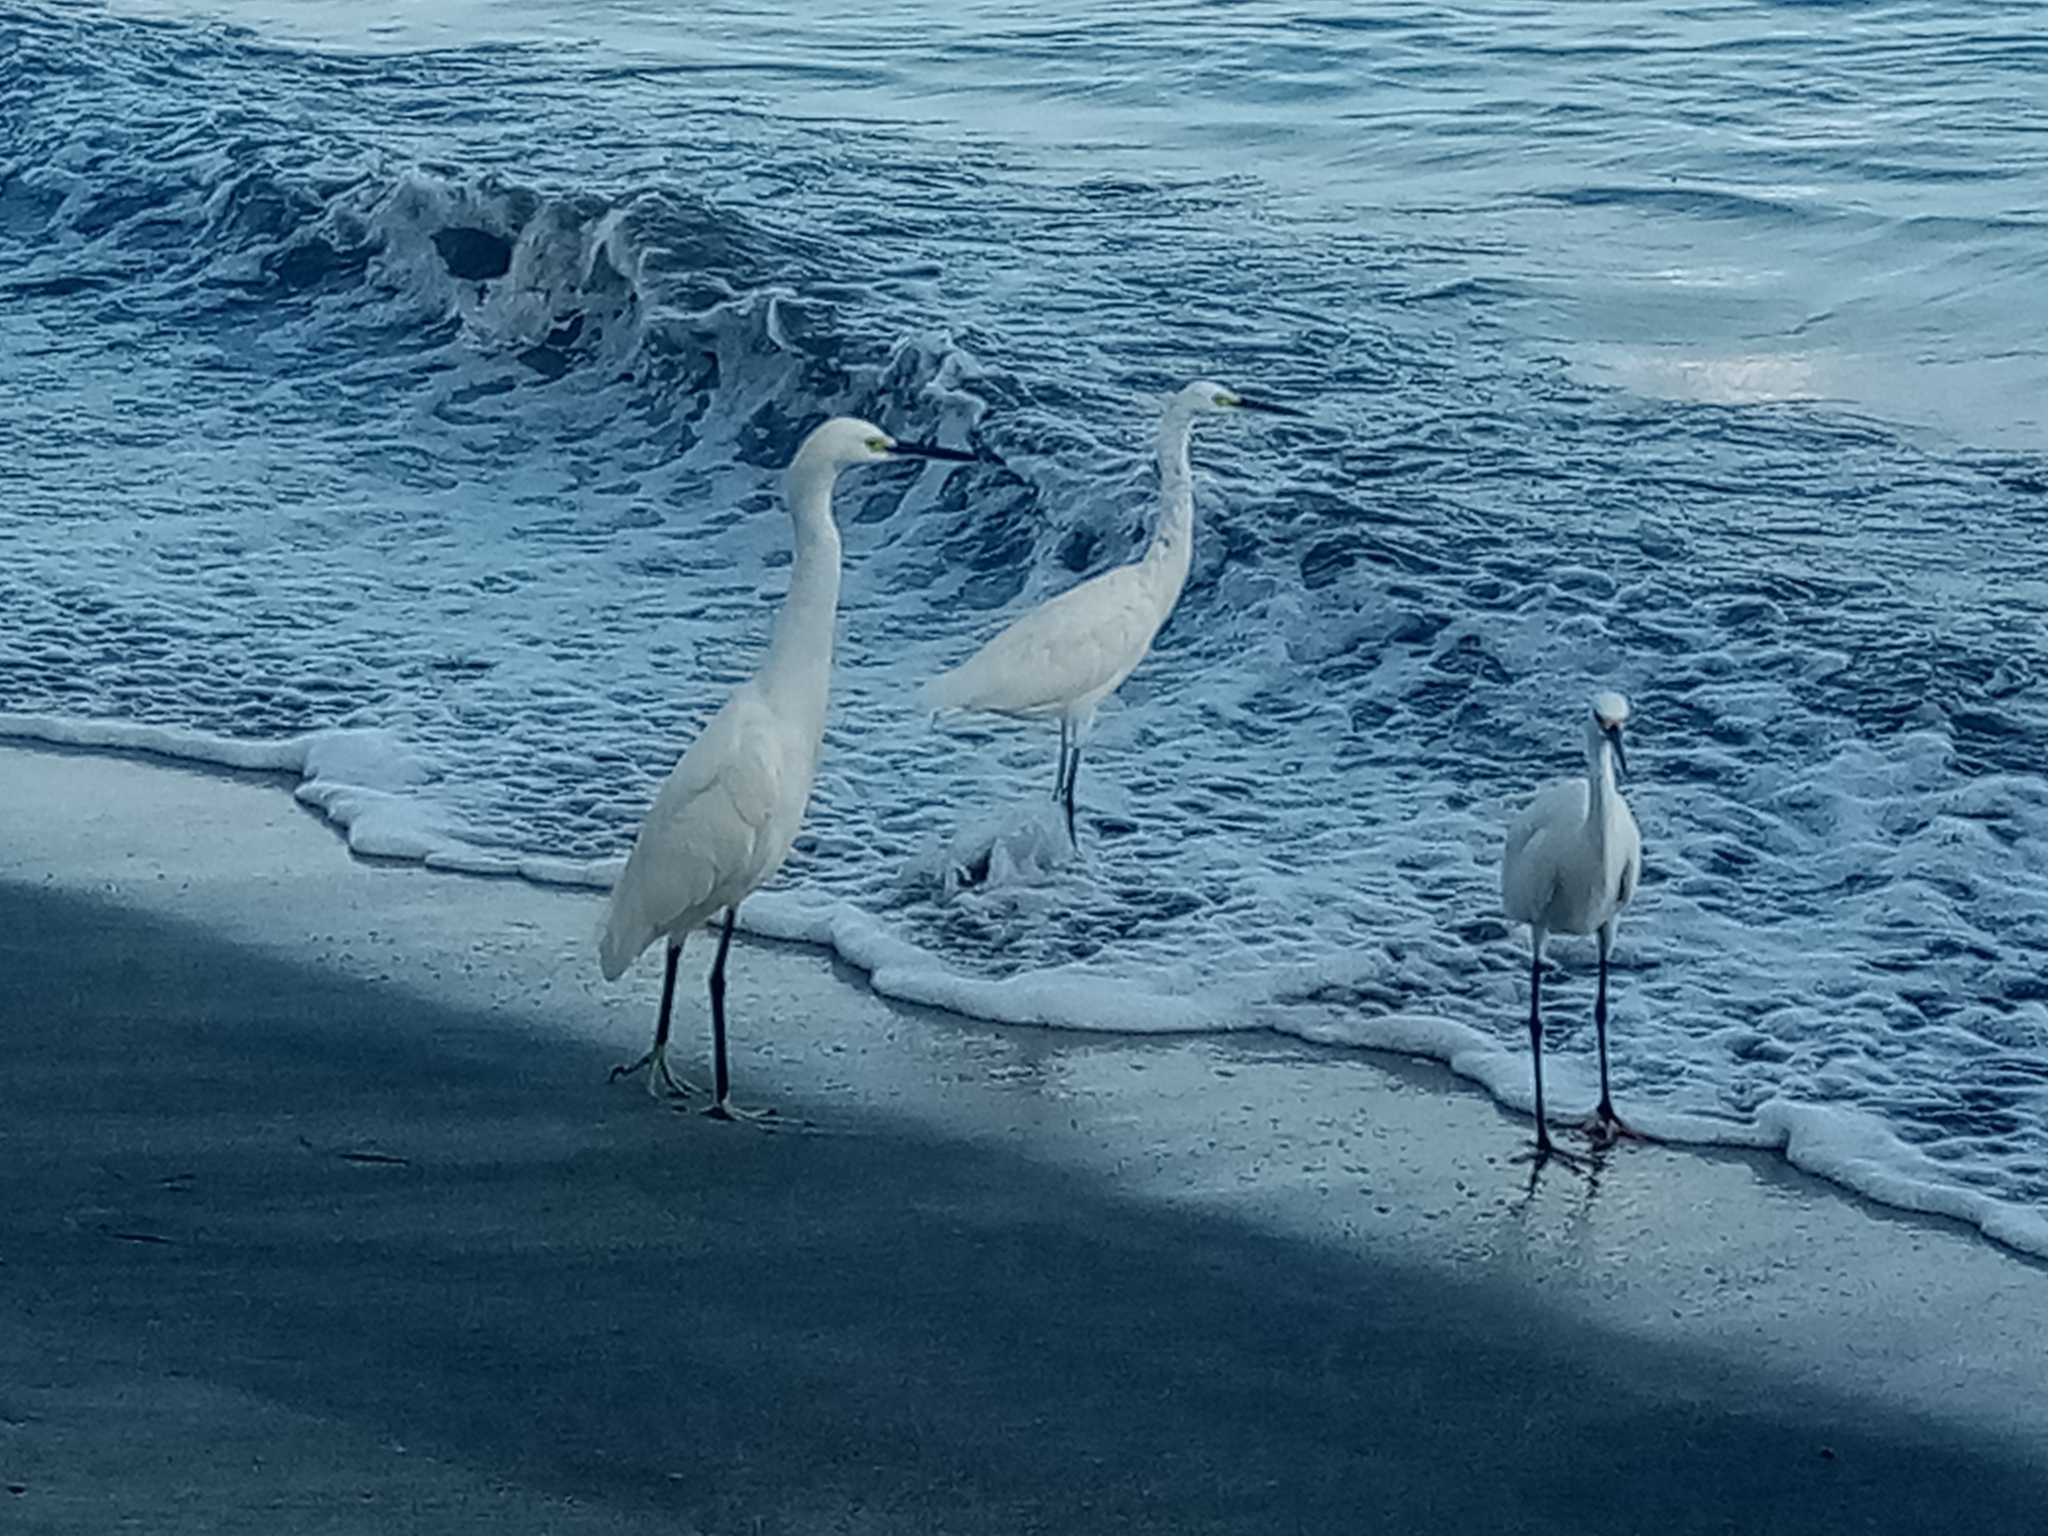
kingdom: Animalia
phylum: Chordata
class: Aves
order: Pelecaniformes
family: Ardeidae
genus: Egretta
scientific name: Egretta thula
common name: Snowy egret
